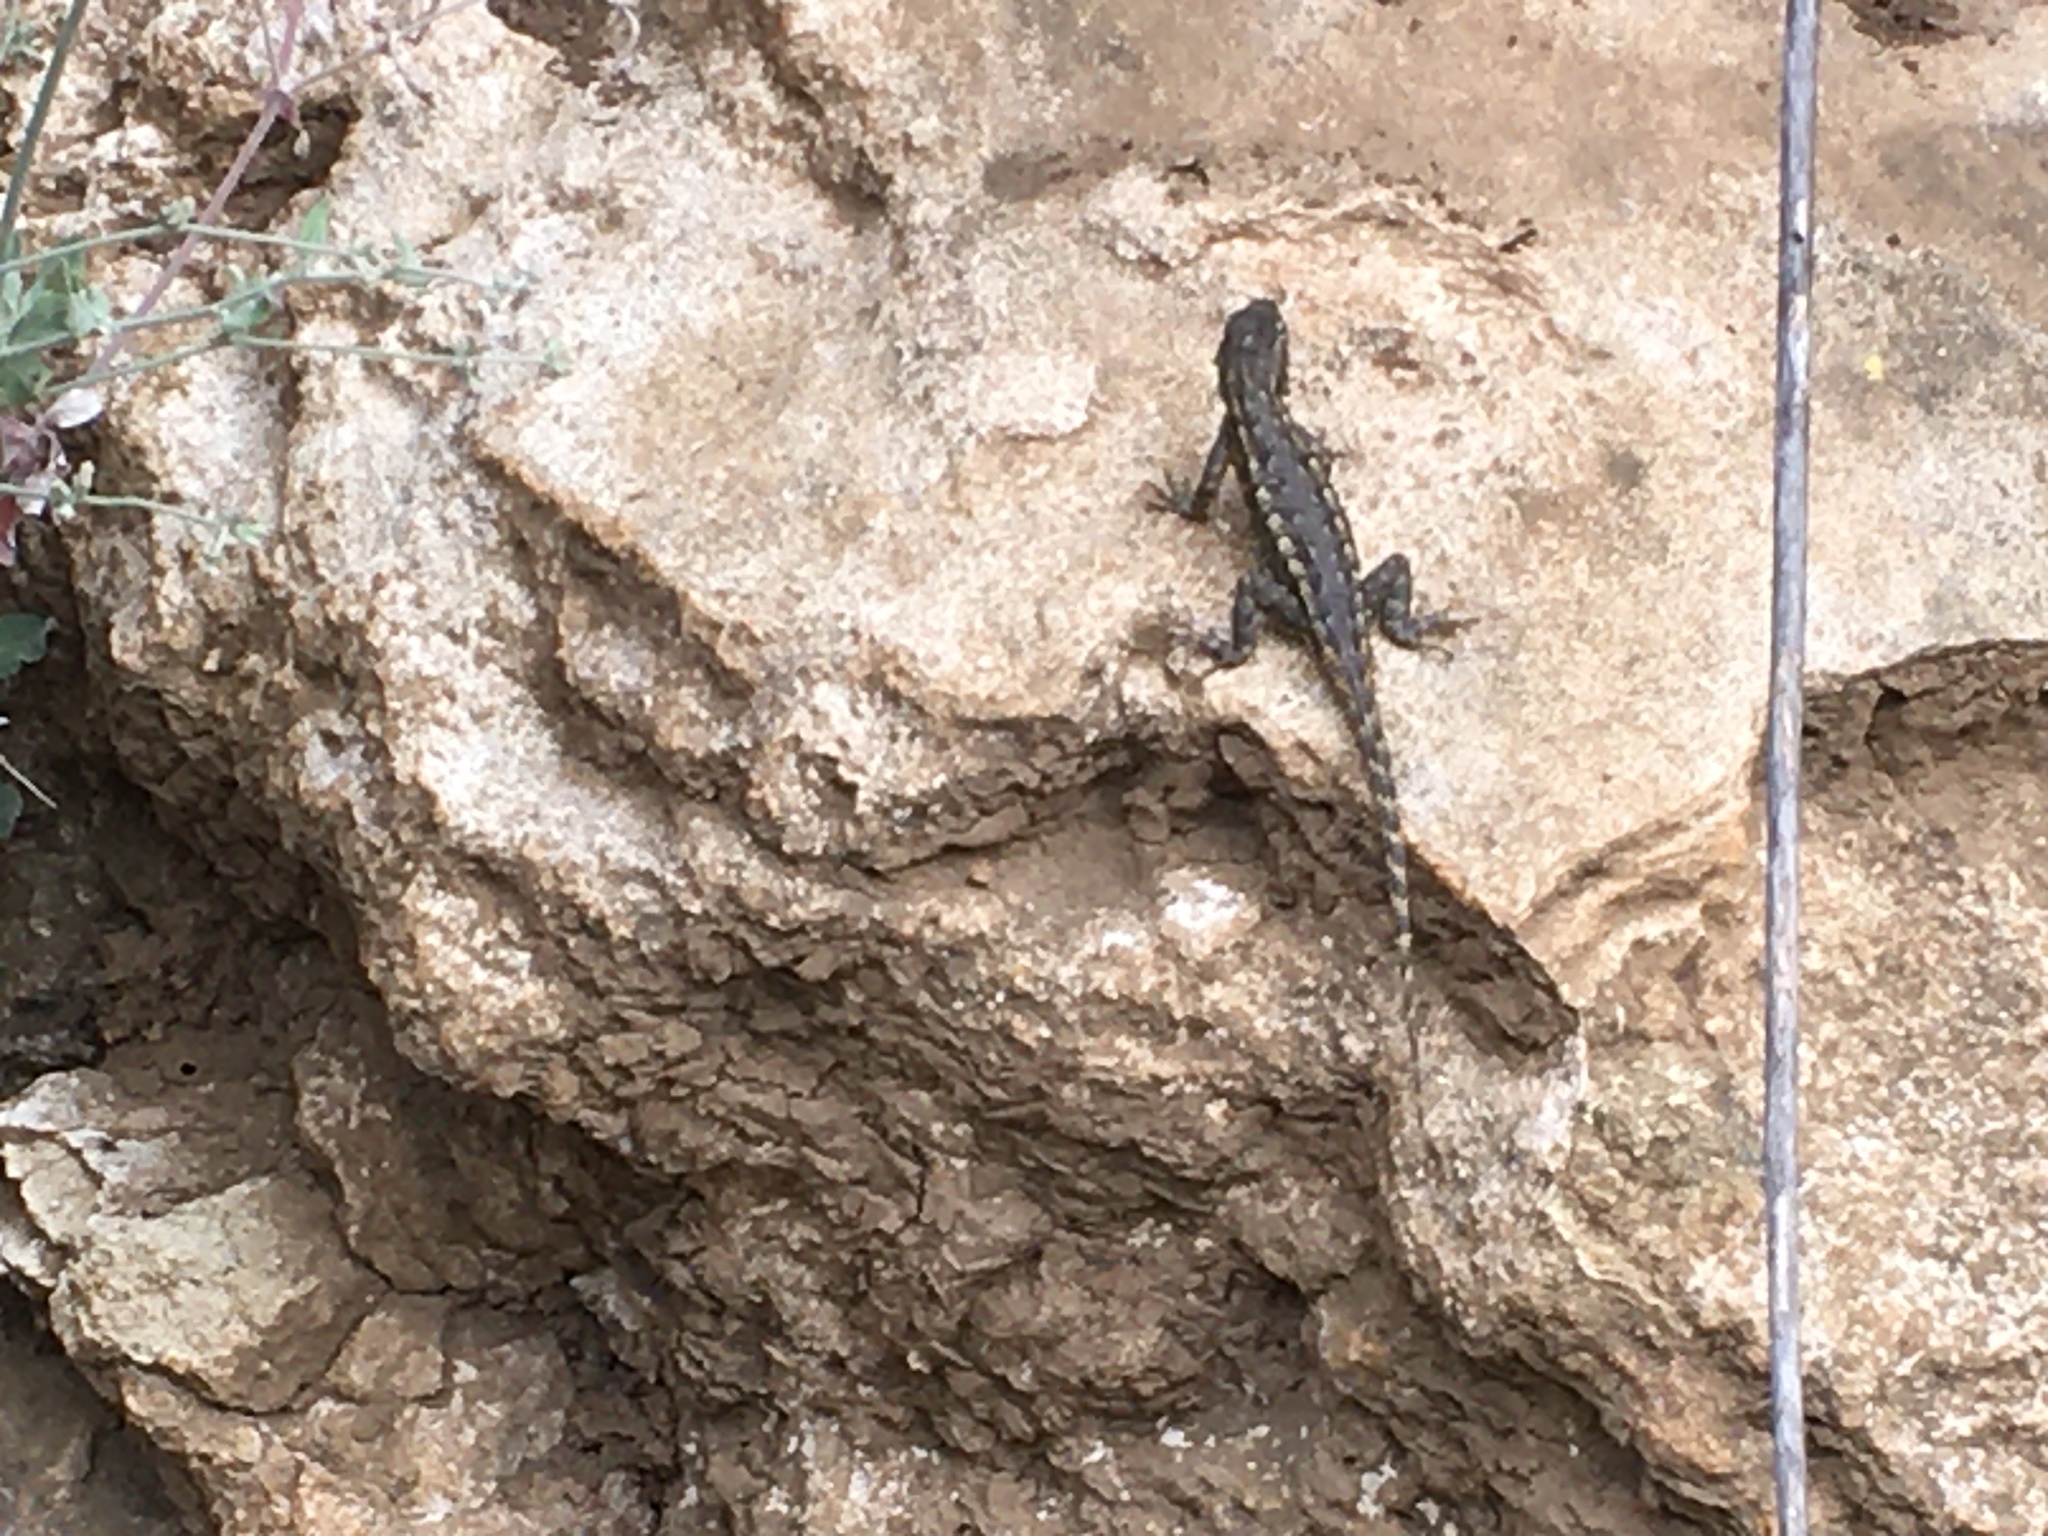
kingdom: Animalia
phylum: Chordata
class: Squamata
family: Phrynosomatidae
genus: Sceloporus
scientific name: Sceloporus occidentalis
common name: Western fence lizard
